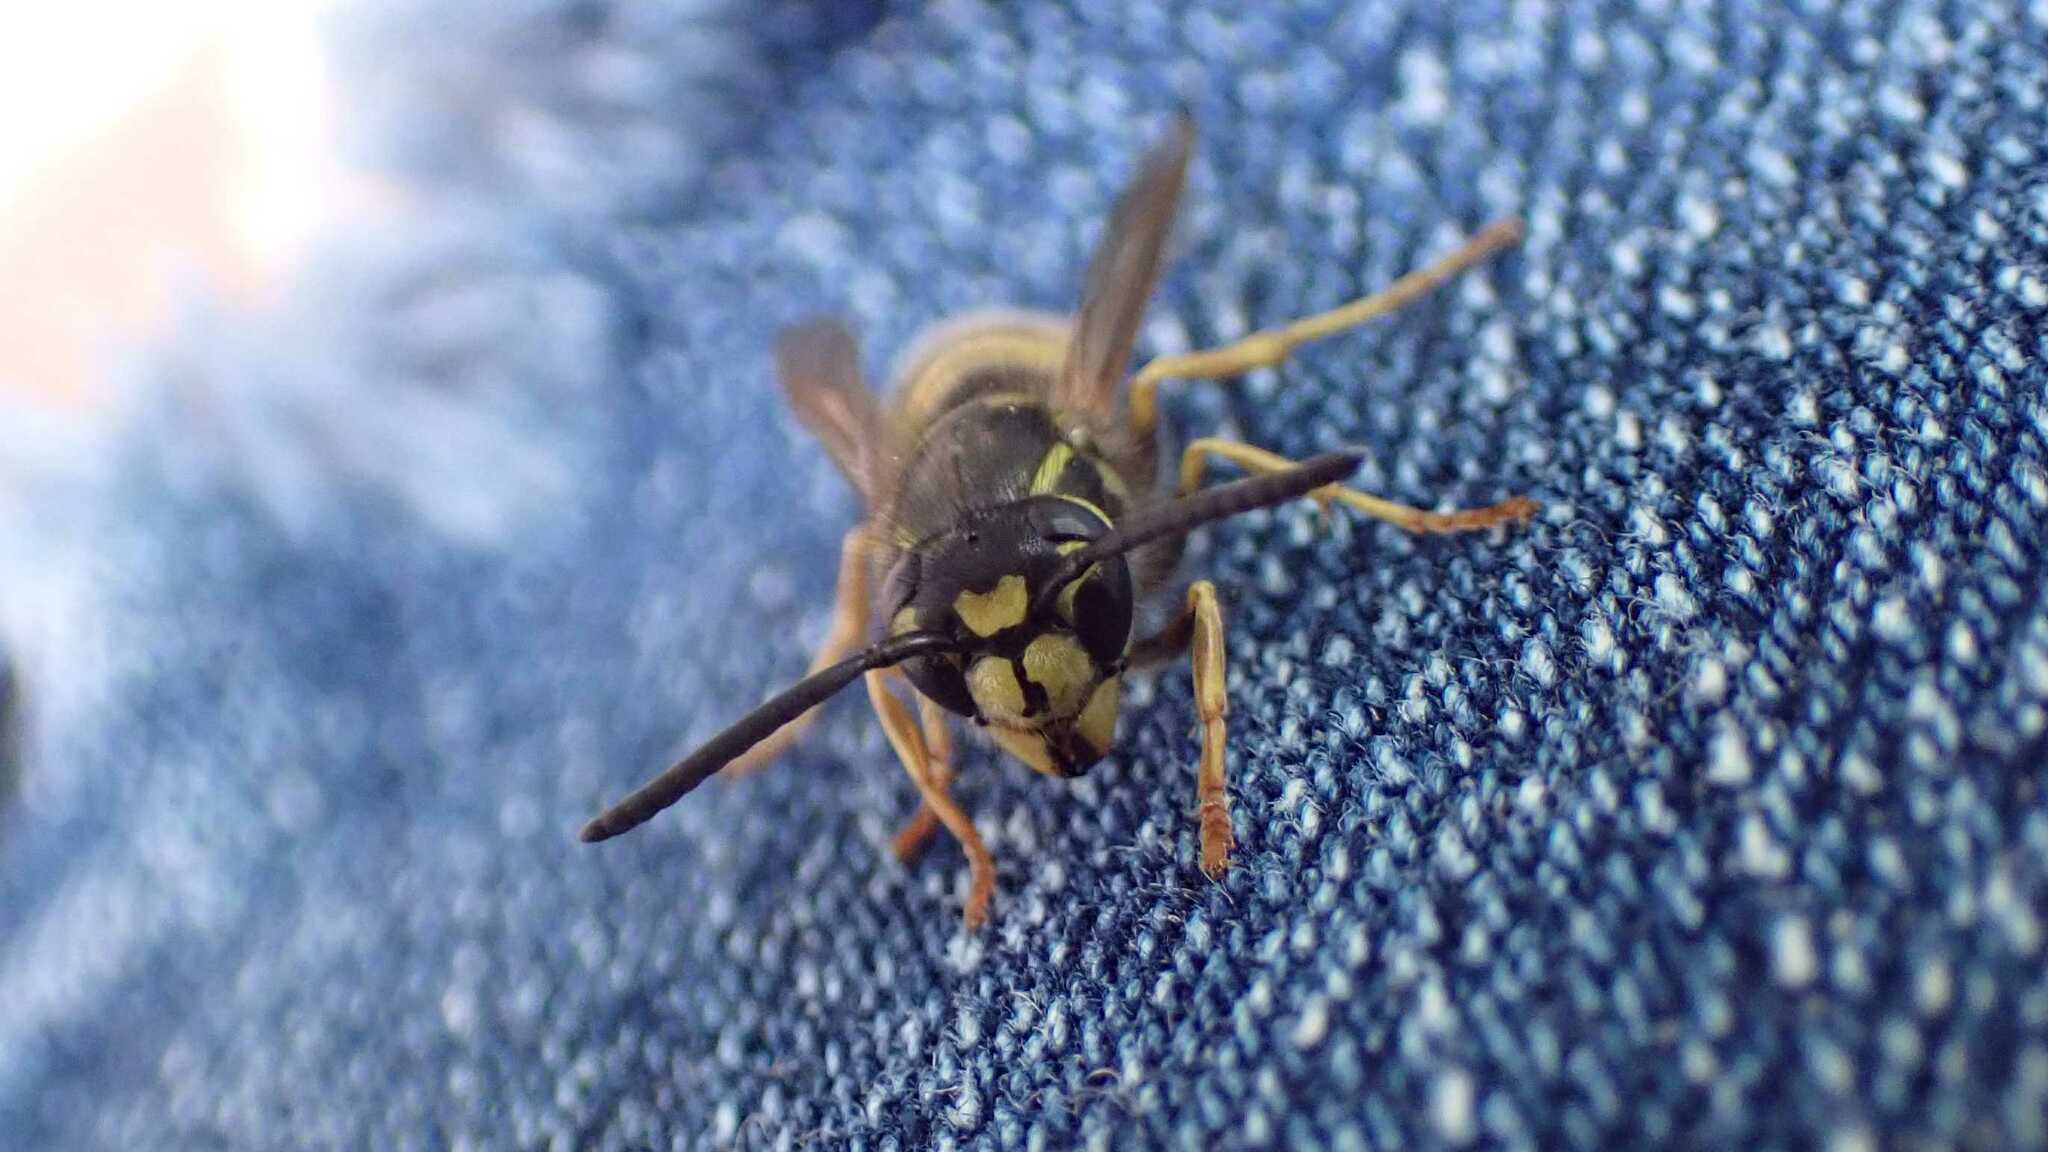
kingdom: Animalia
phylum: Arthropoda
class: Insecta
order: Hymenoptera
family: Vespidae
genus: Vespula
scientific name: Vespula vulgaris
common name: Common wasp
